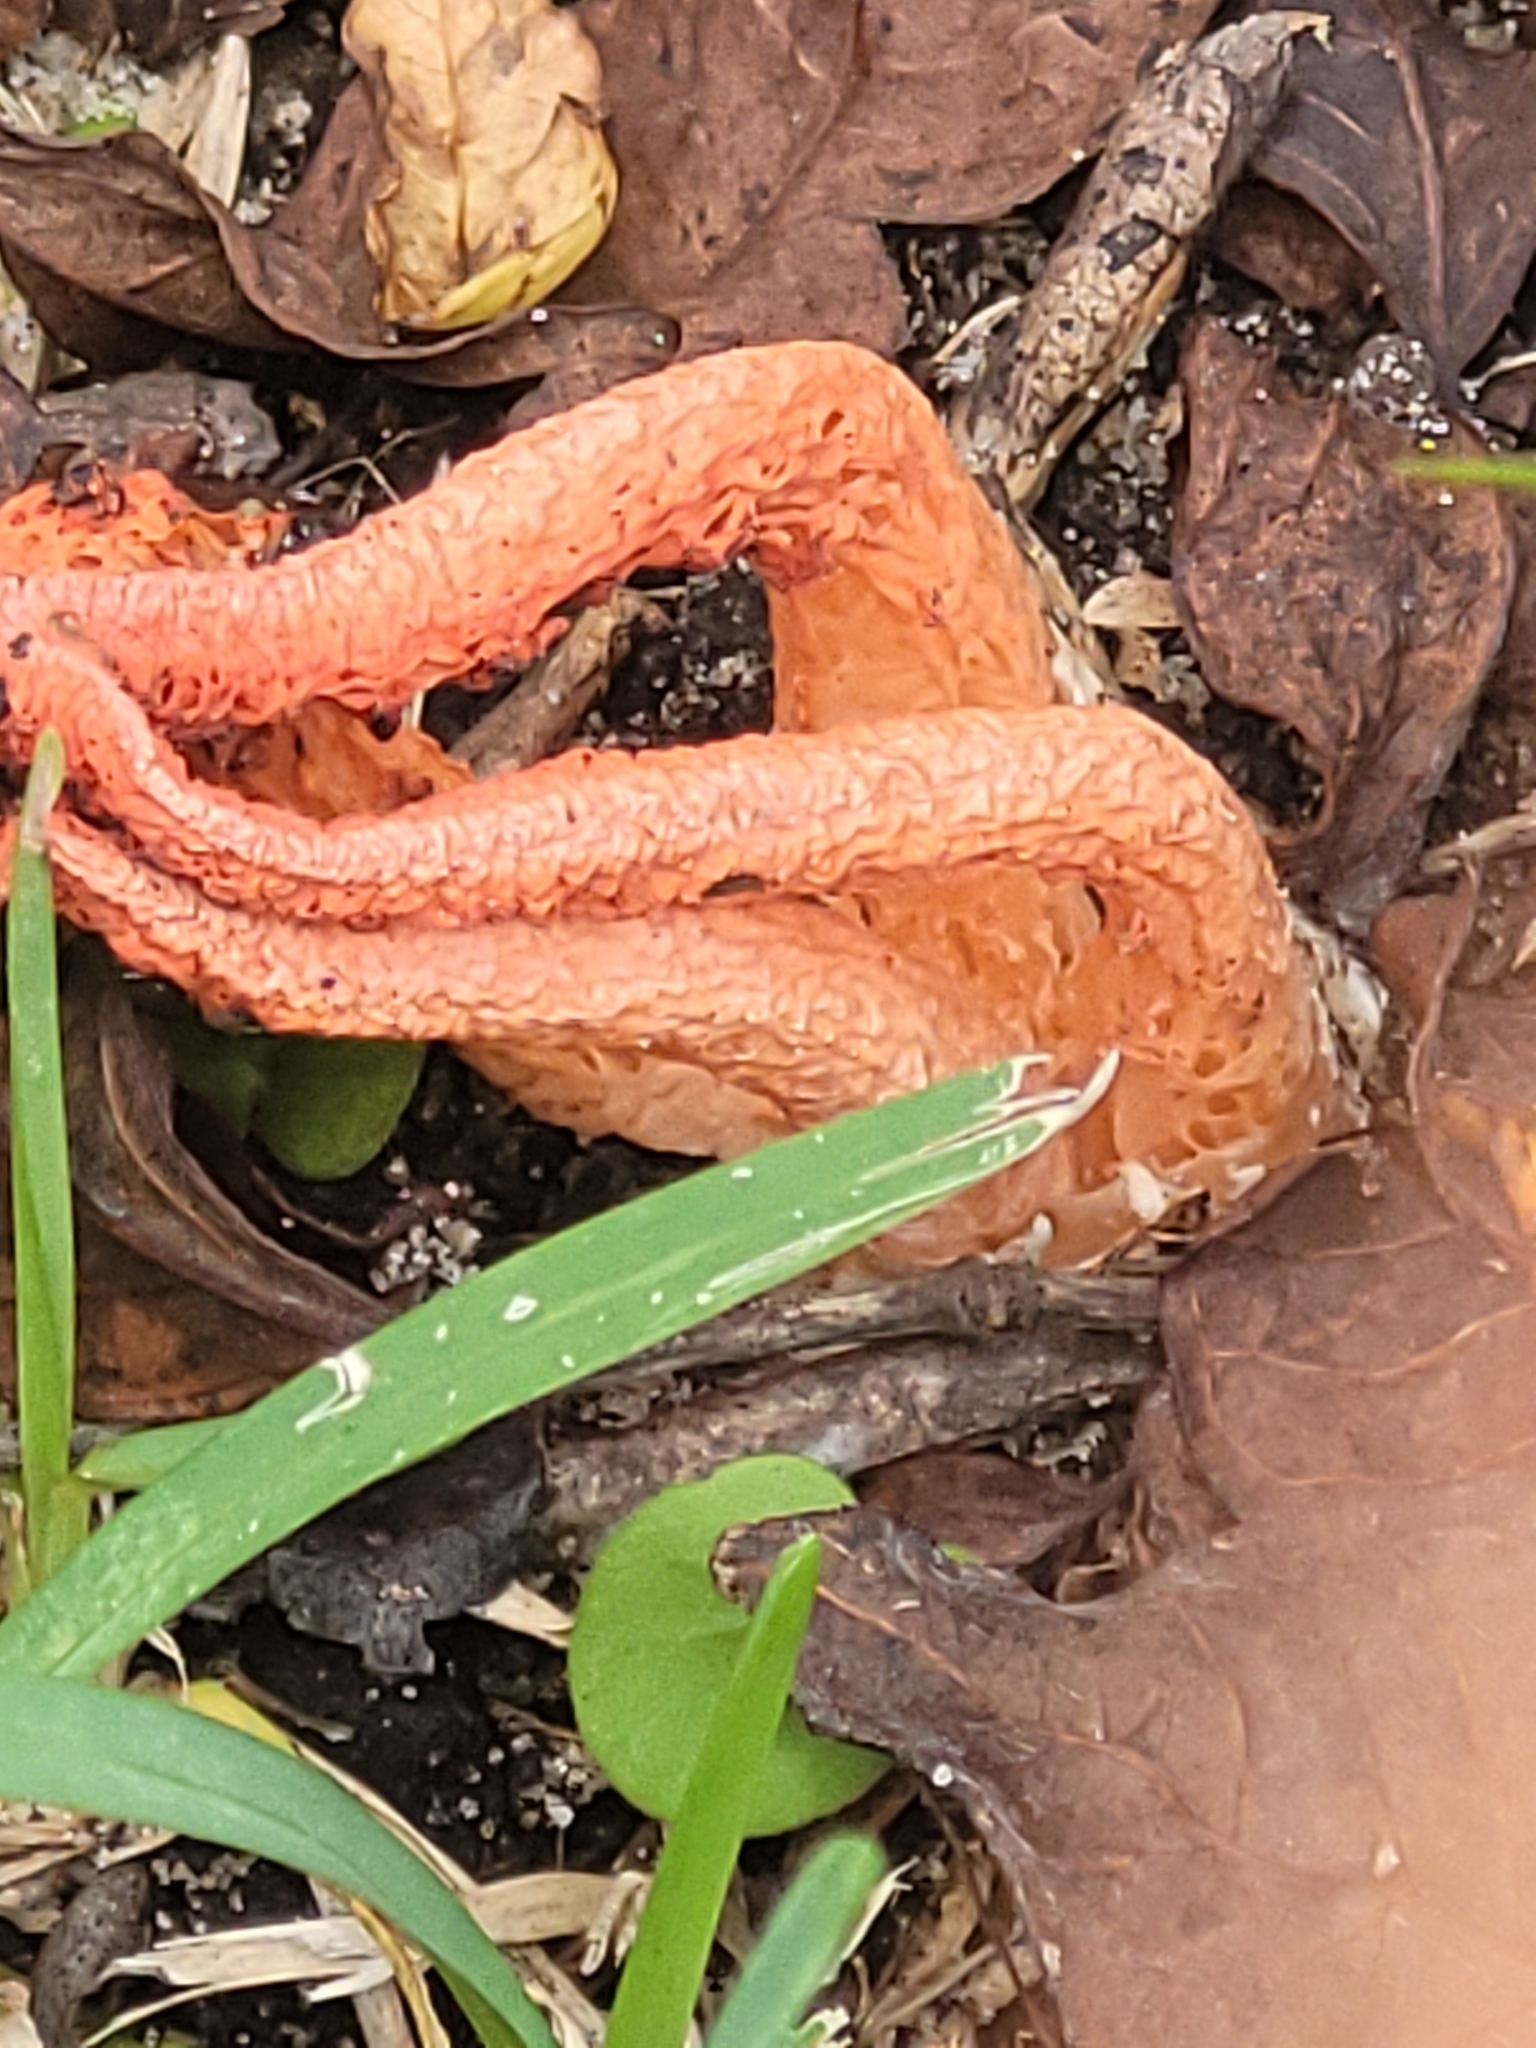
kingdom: Fungi
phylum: Basidiomycota
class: Agaricomycetes
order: Phallales
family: Phallaceae
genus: Pseudocolus
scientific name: Pseudocolus fusiformis
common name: Stinky squid
